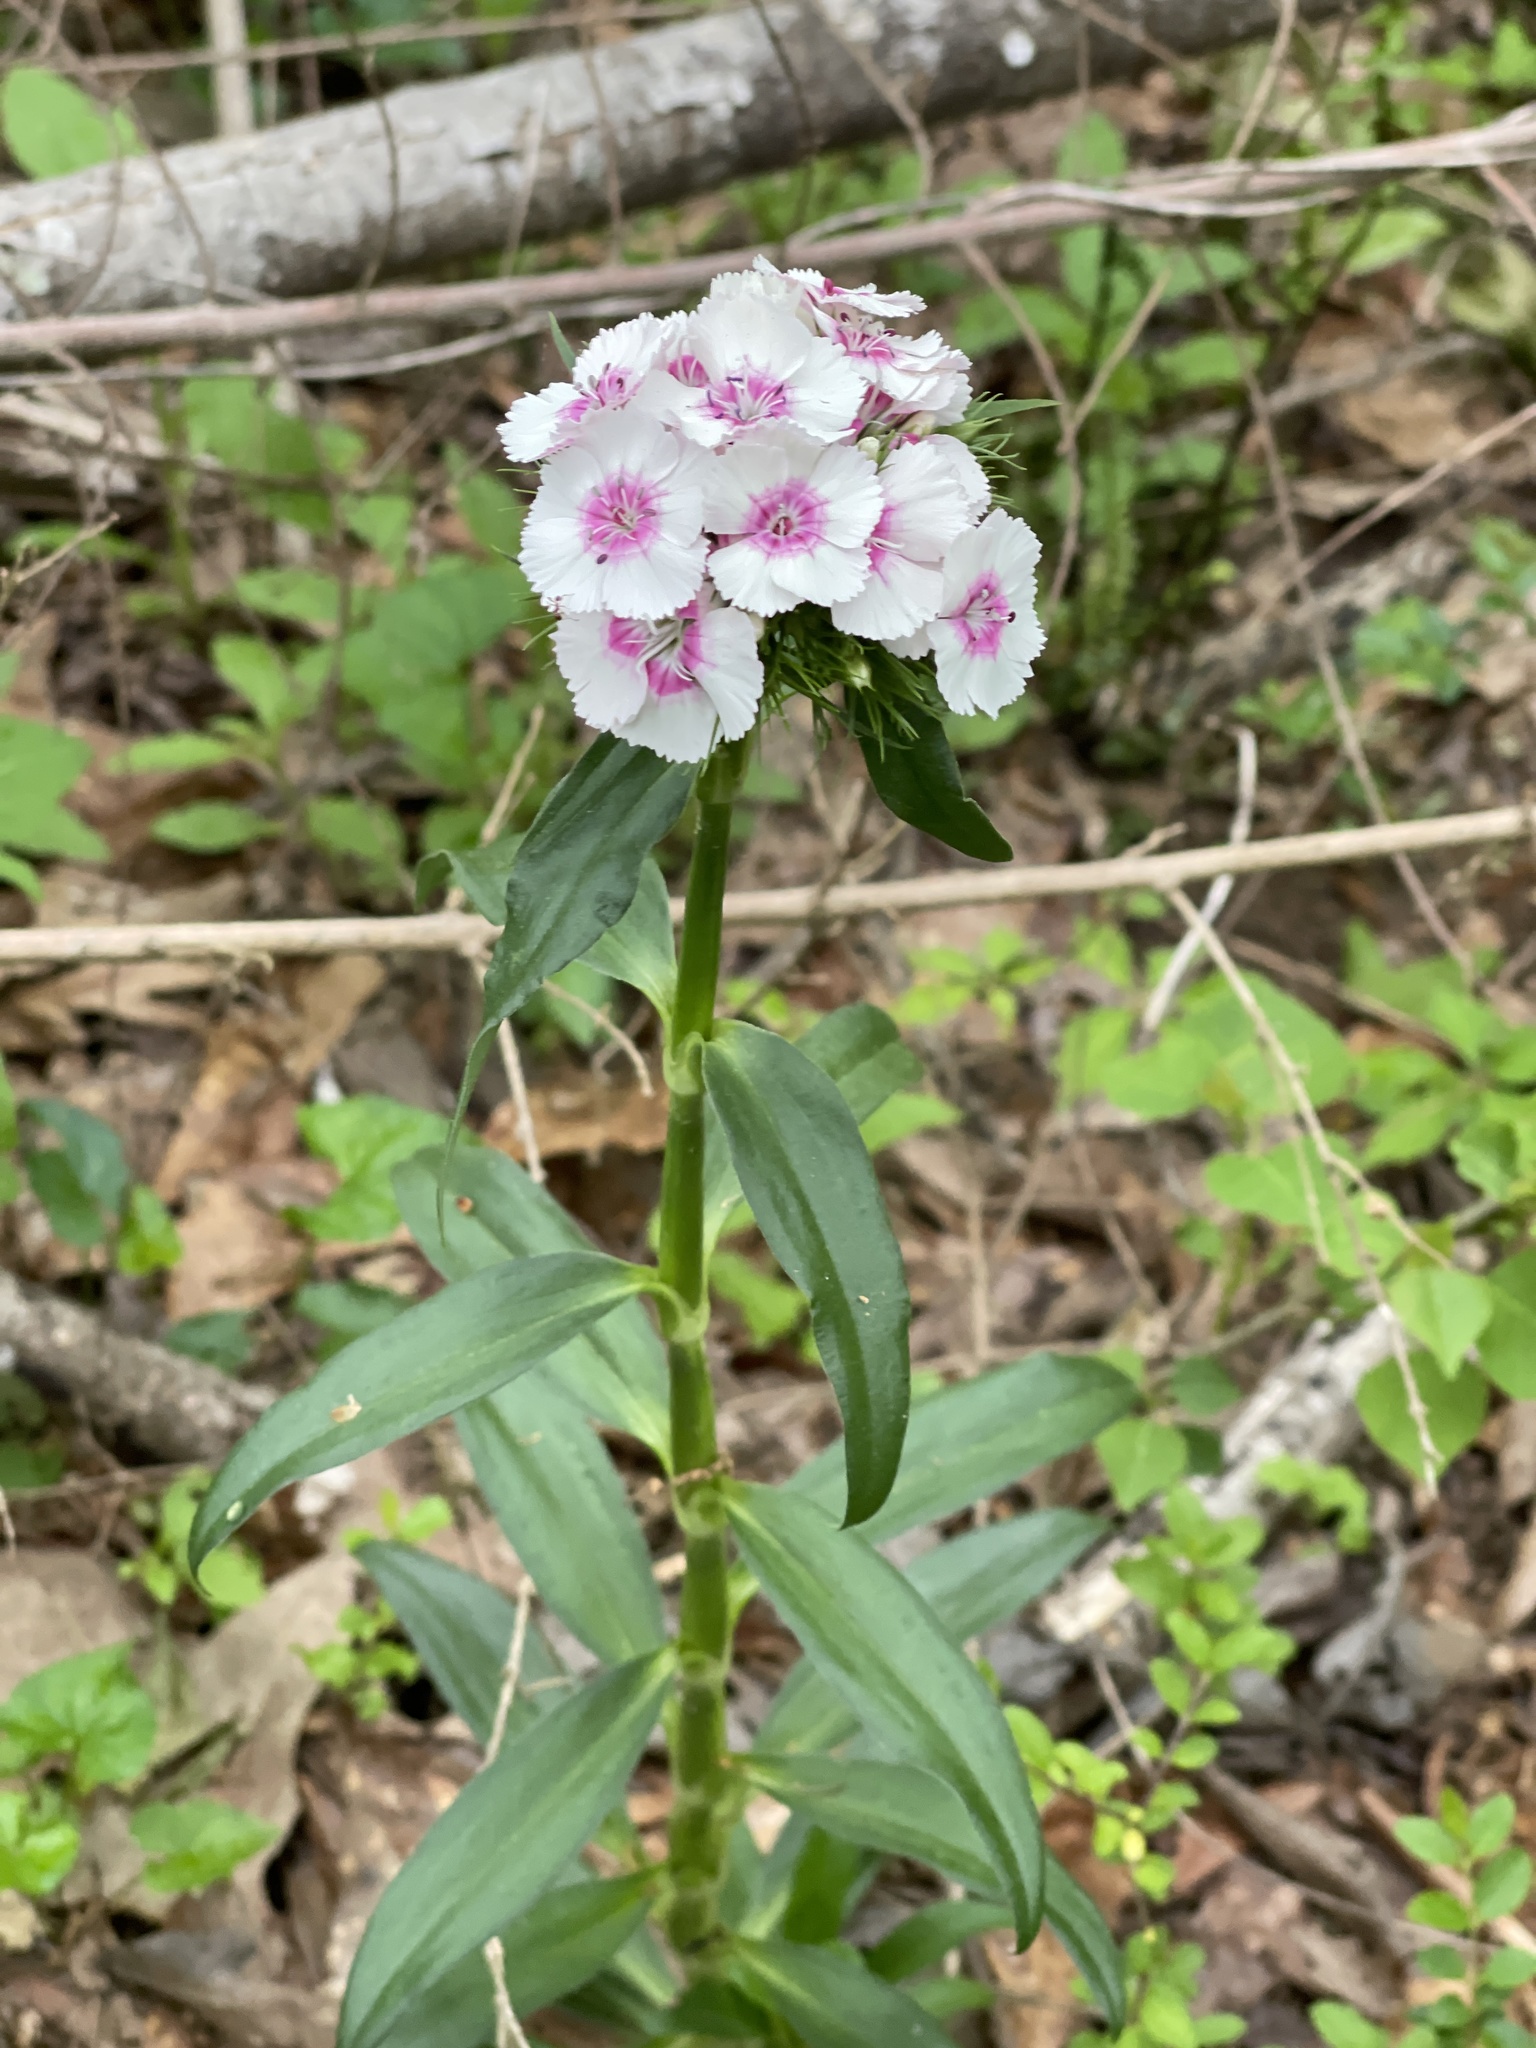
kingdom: Plantae
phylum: Tracheophyta
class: Magnoliopsida
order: Caryophyllales
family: Caryophyllaceae
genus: Dianthus
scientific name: Dianthus barbatus
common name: Sweet-william
